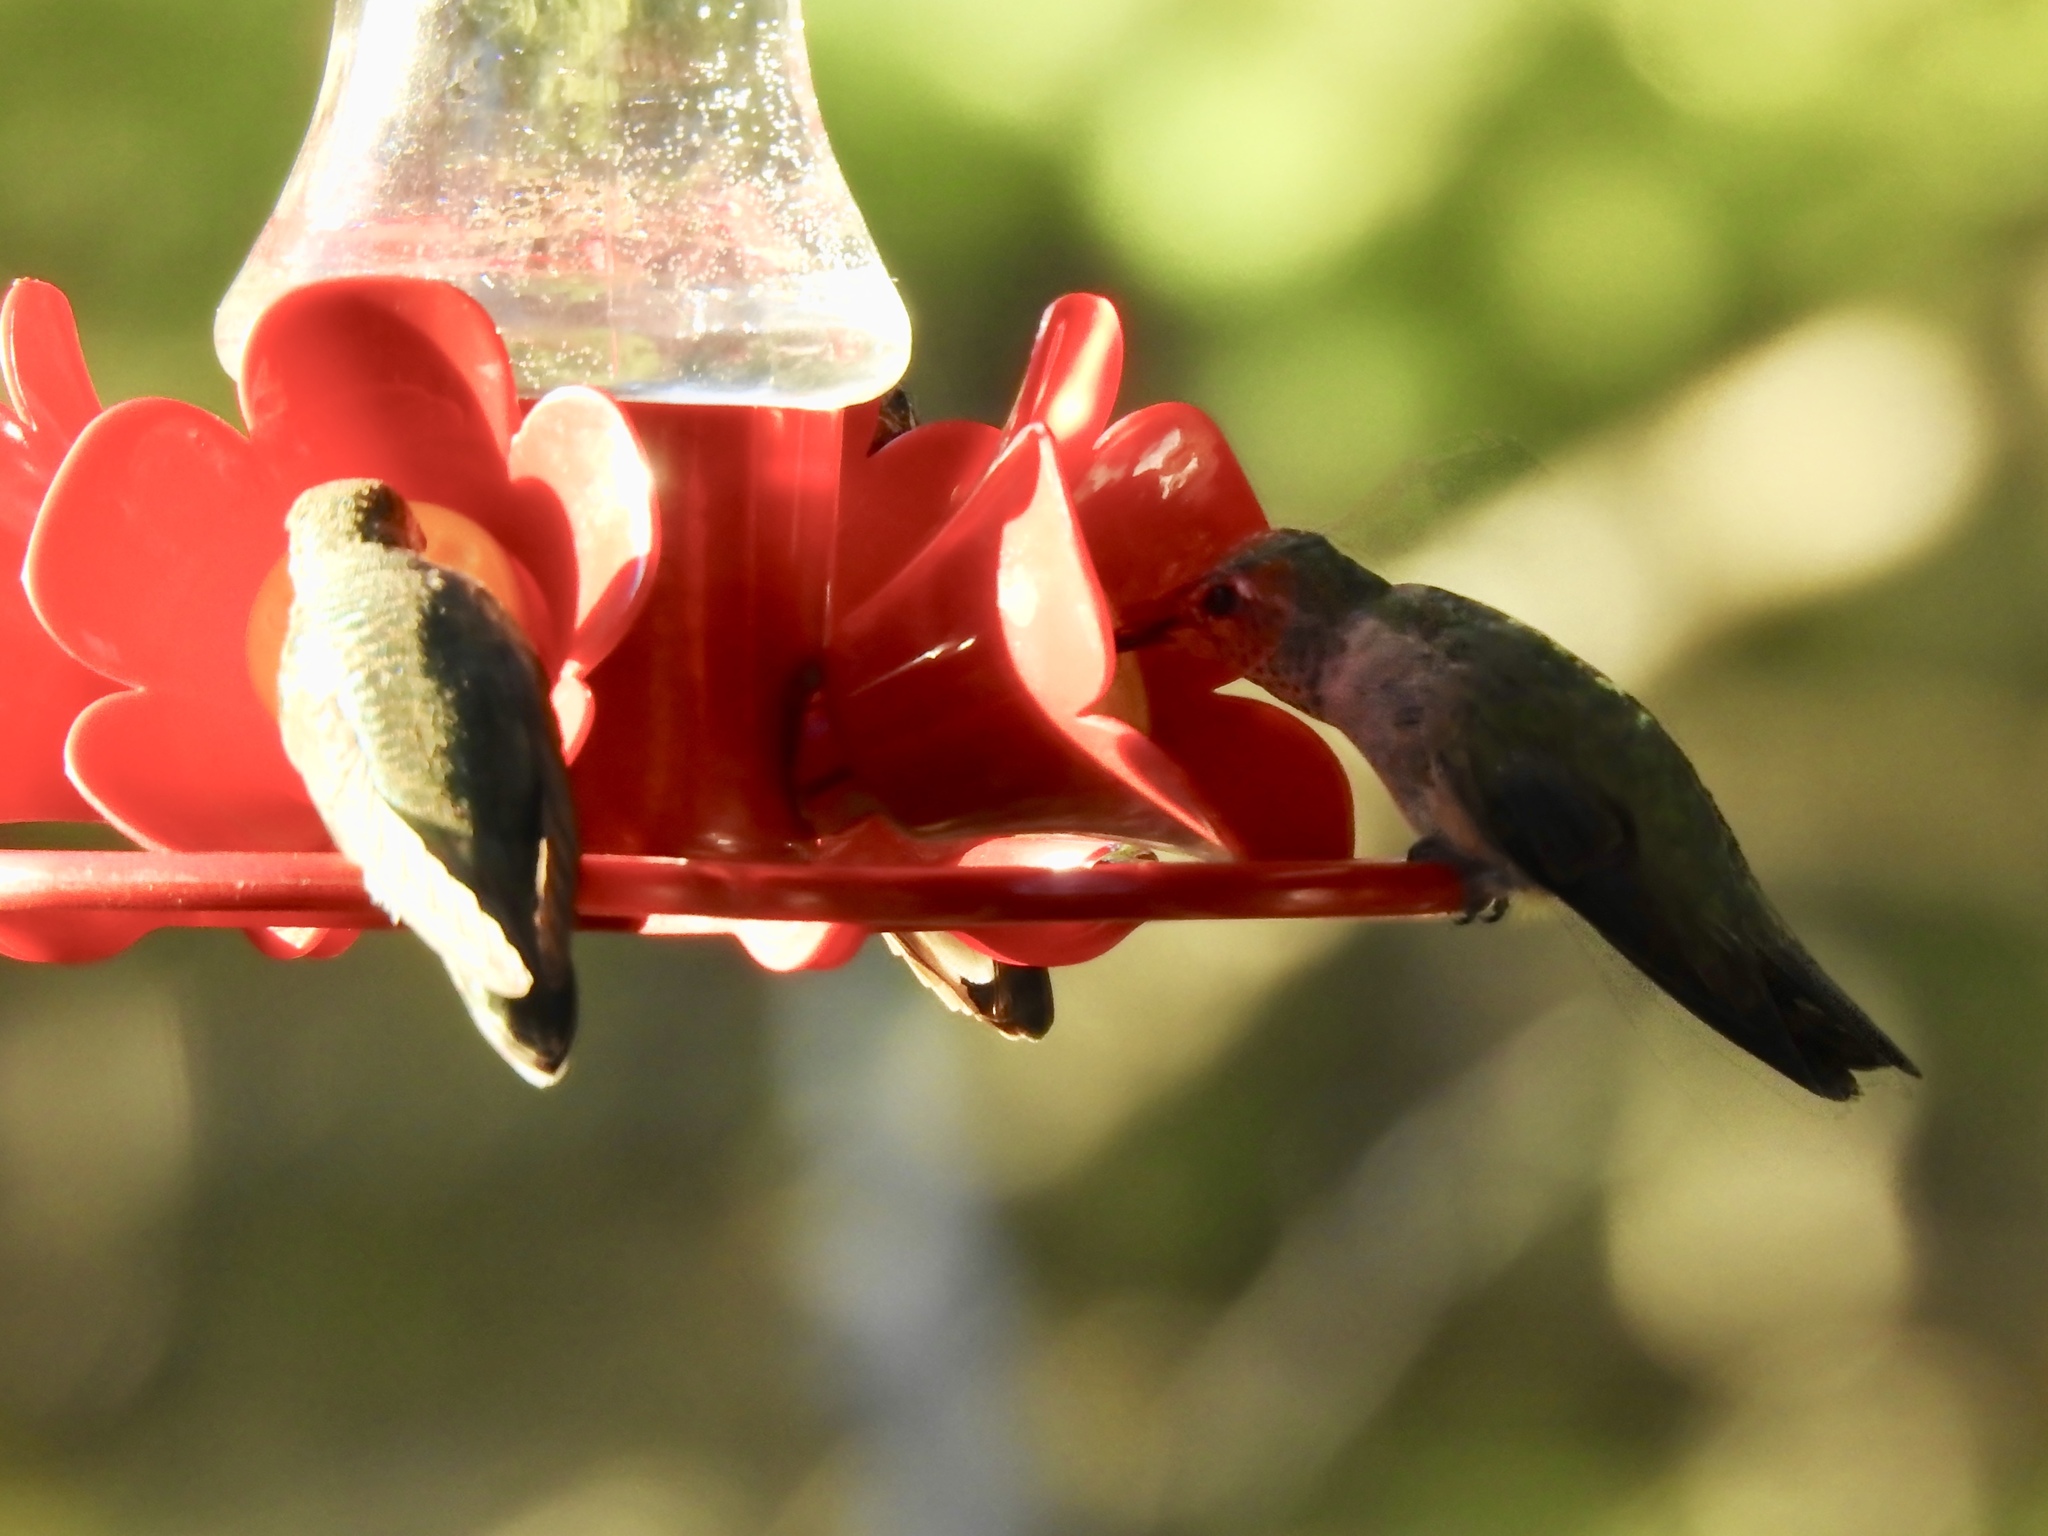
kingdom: Animalia
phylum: Chordata
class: Aves
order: Apodiformes
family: Trochilidae
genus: Archilochus
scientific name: Archilochus alexandri
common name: Black-chinned hummingbird
